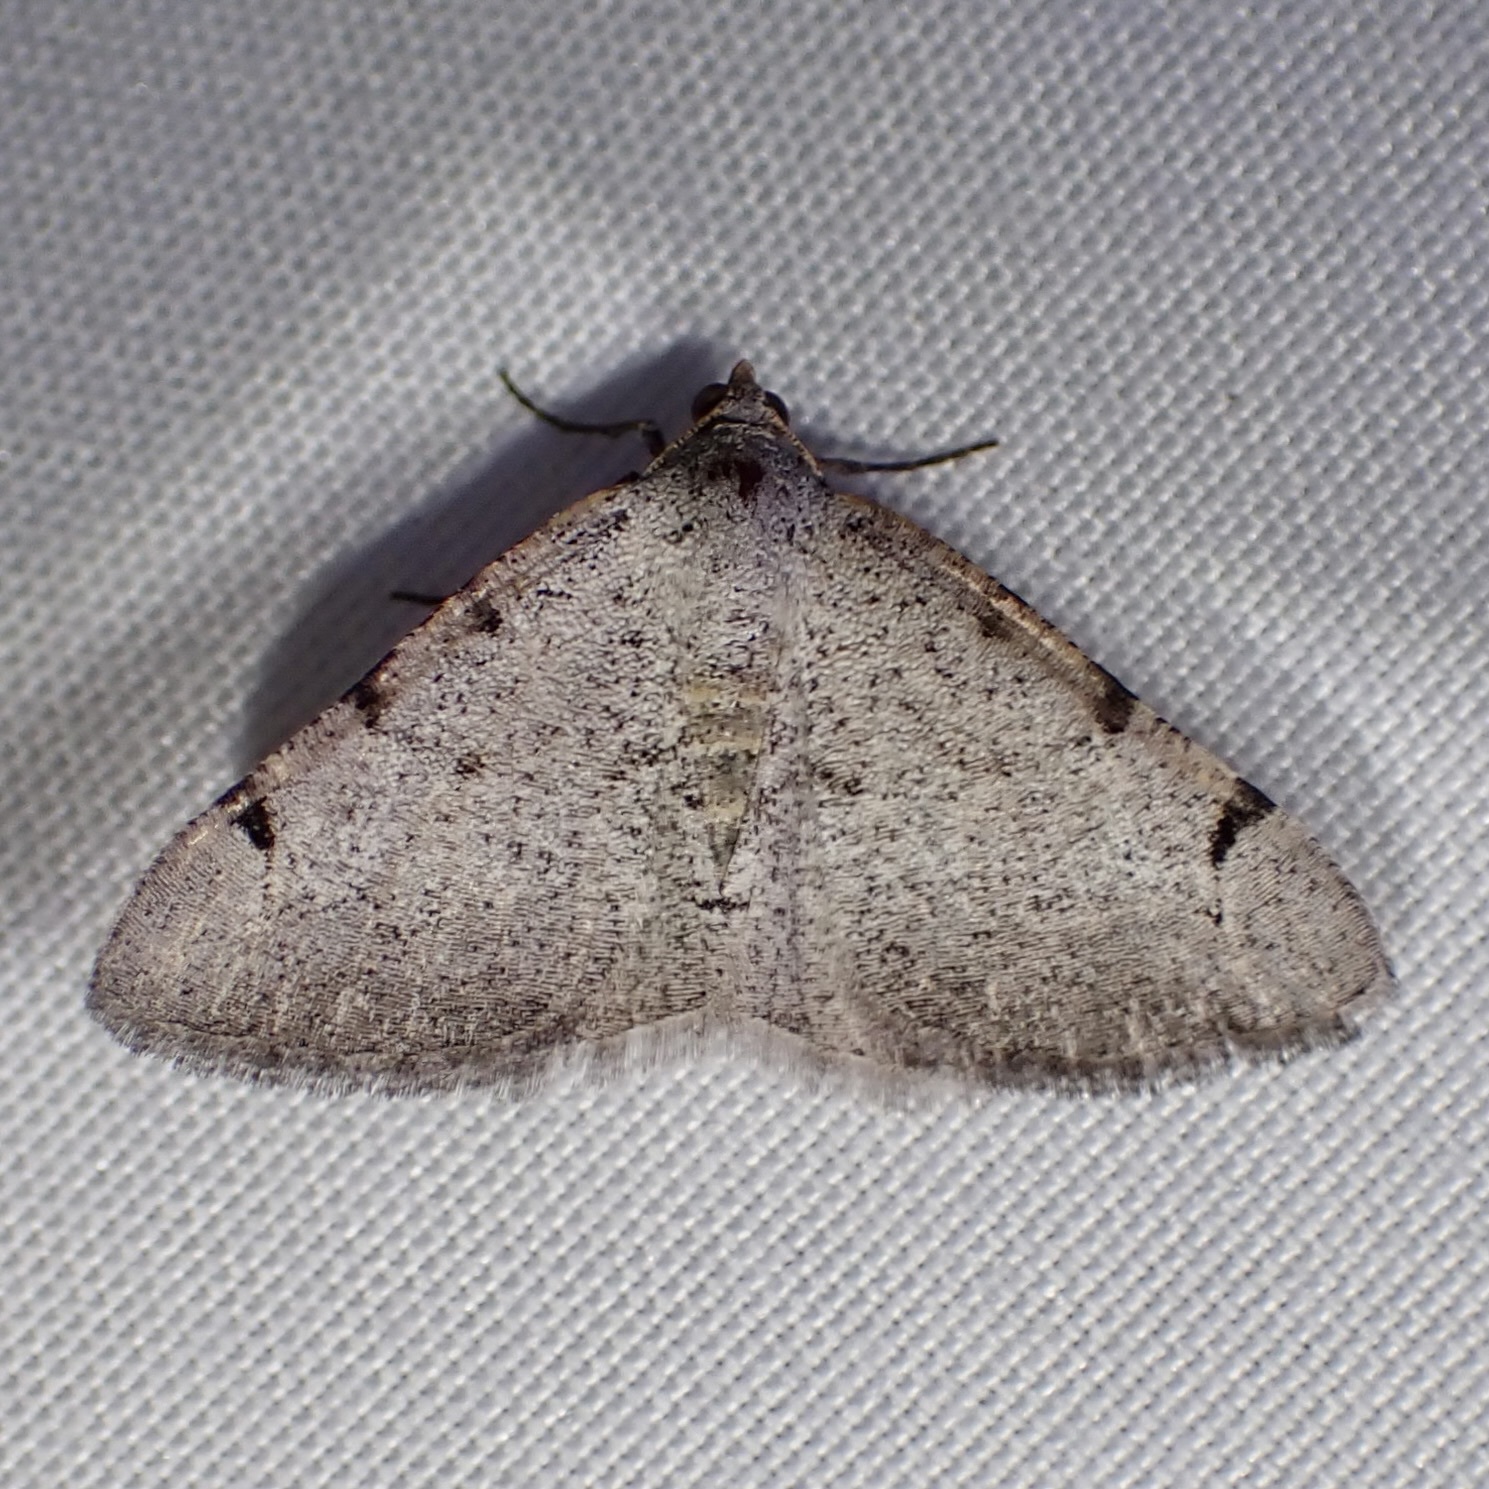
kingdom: Animalia
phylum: Arthropoda
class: Insecta
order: Lepidoptera
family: Geometridae
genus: Digrammia
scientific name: Digrammia triviata
